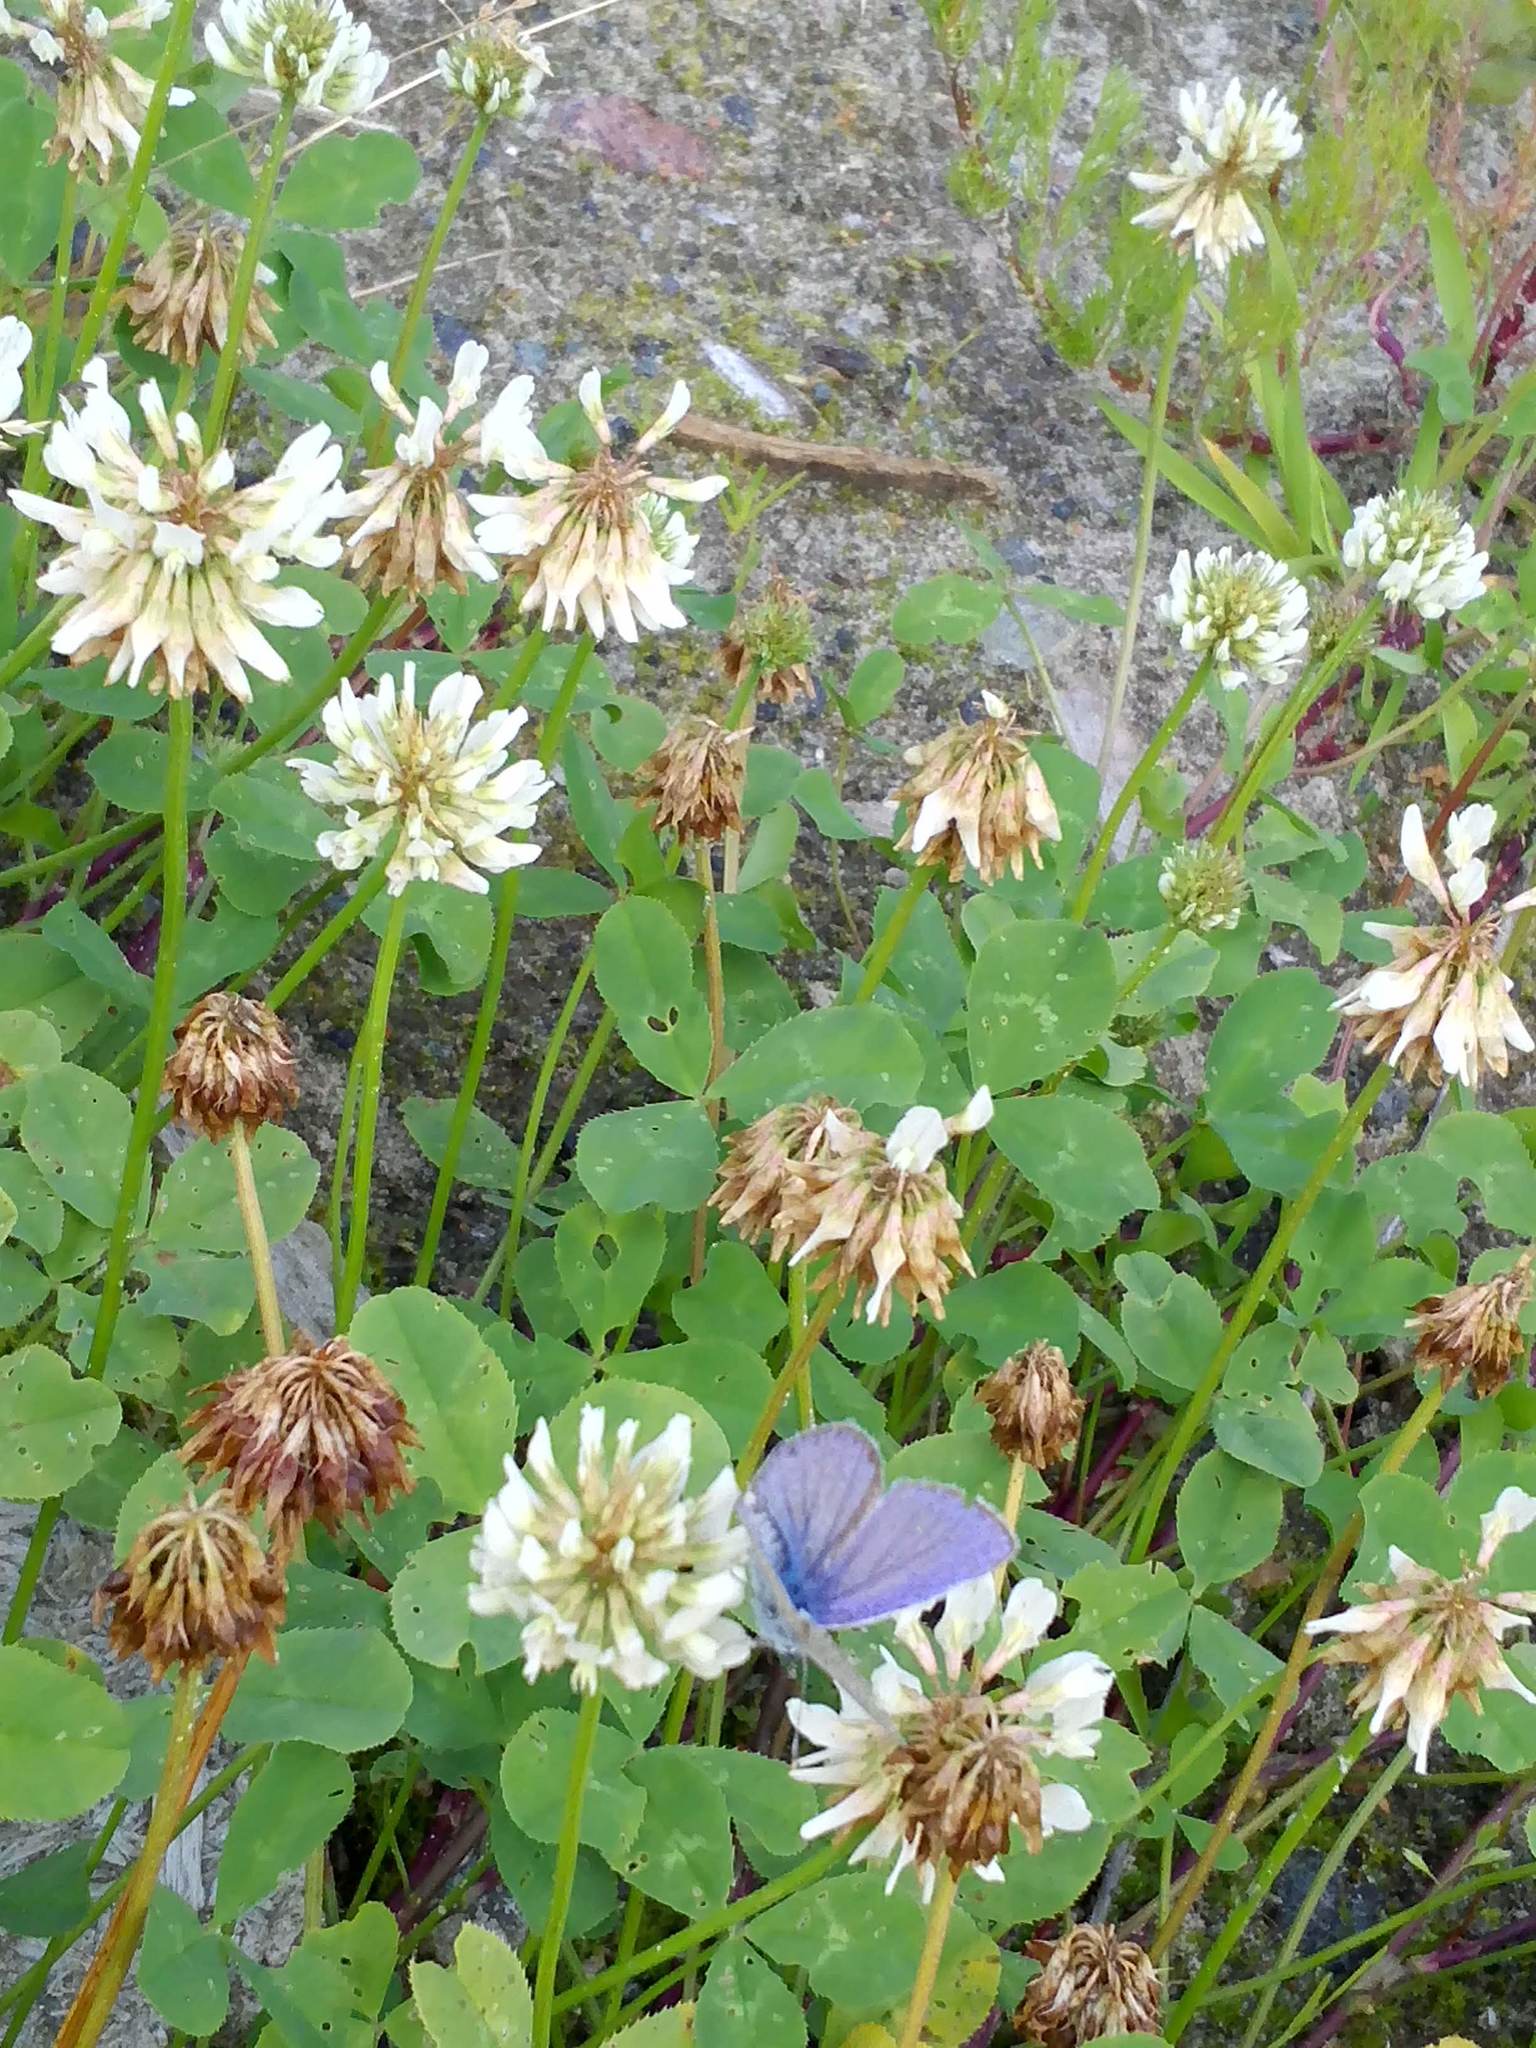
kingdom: Animalia
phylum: Arthropoda
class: Insecta
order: Lepidoptera
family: Lycaenidae
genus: Polyommatus
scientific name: Polyommatus icarus
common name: Common blue
